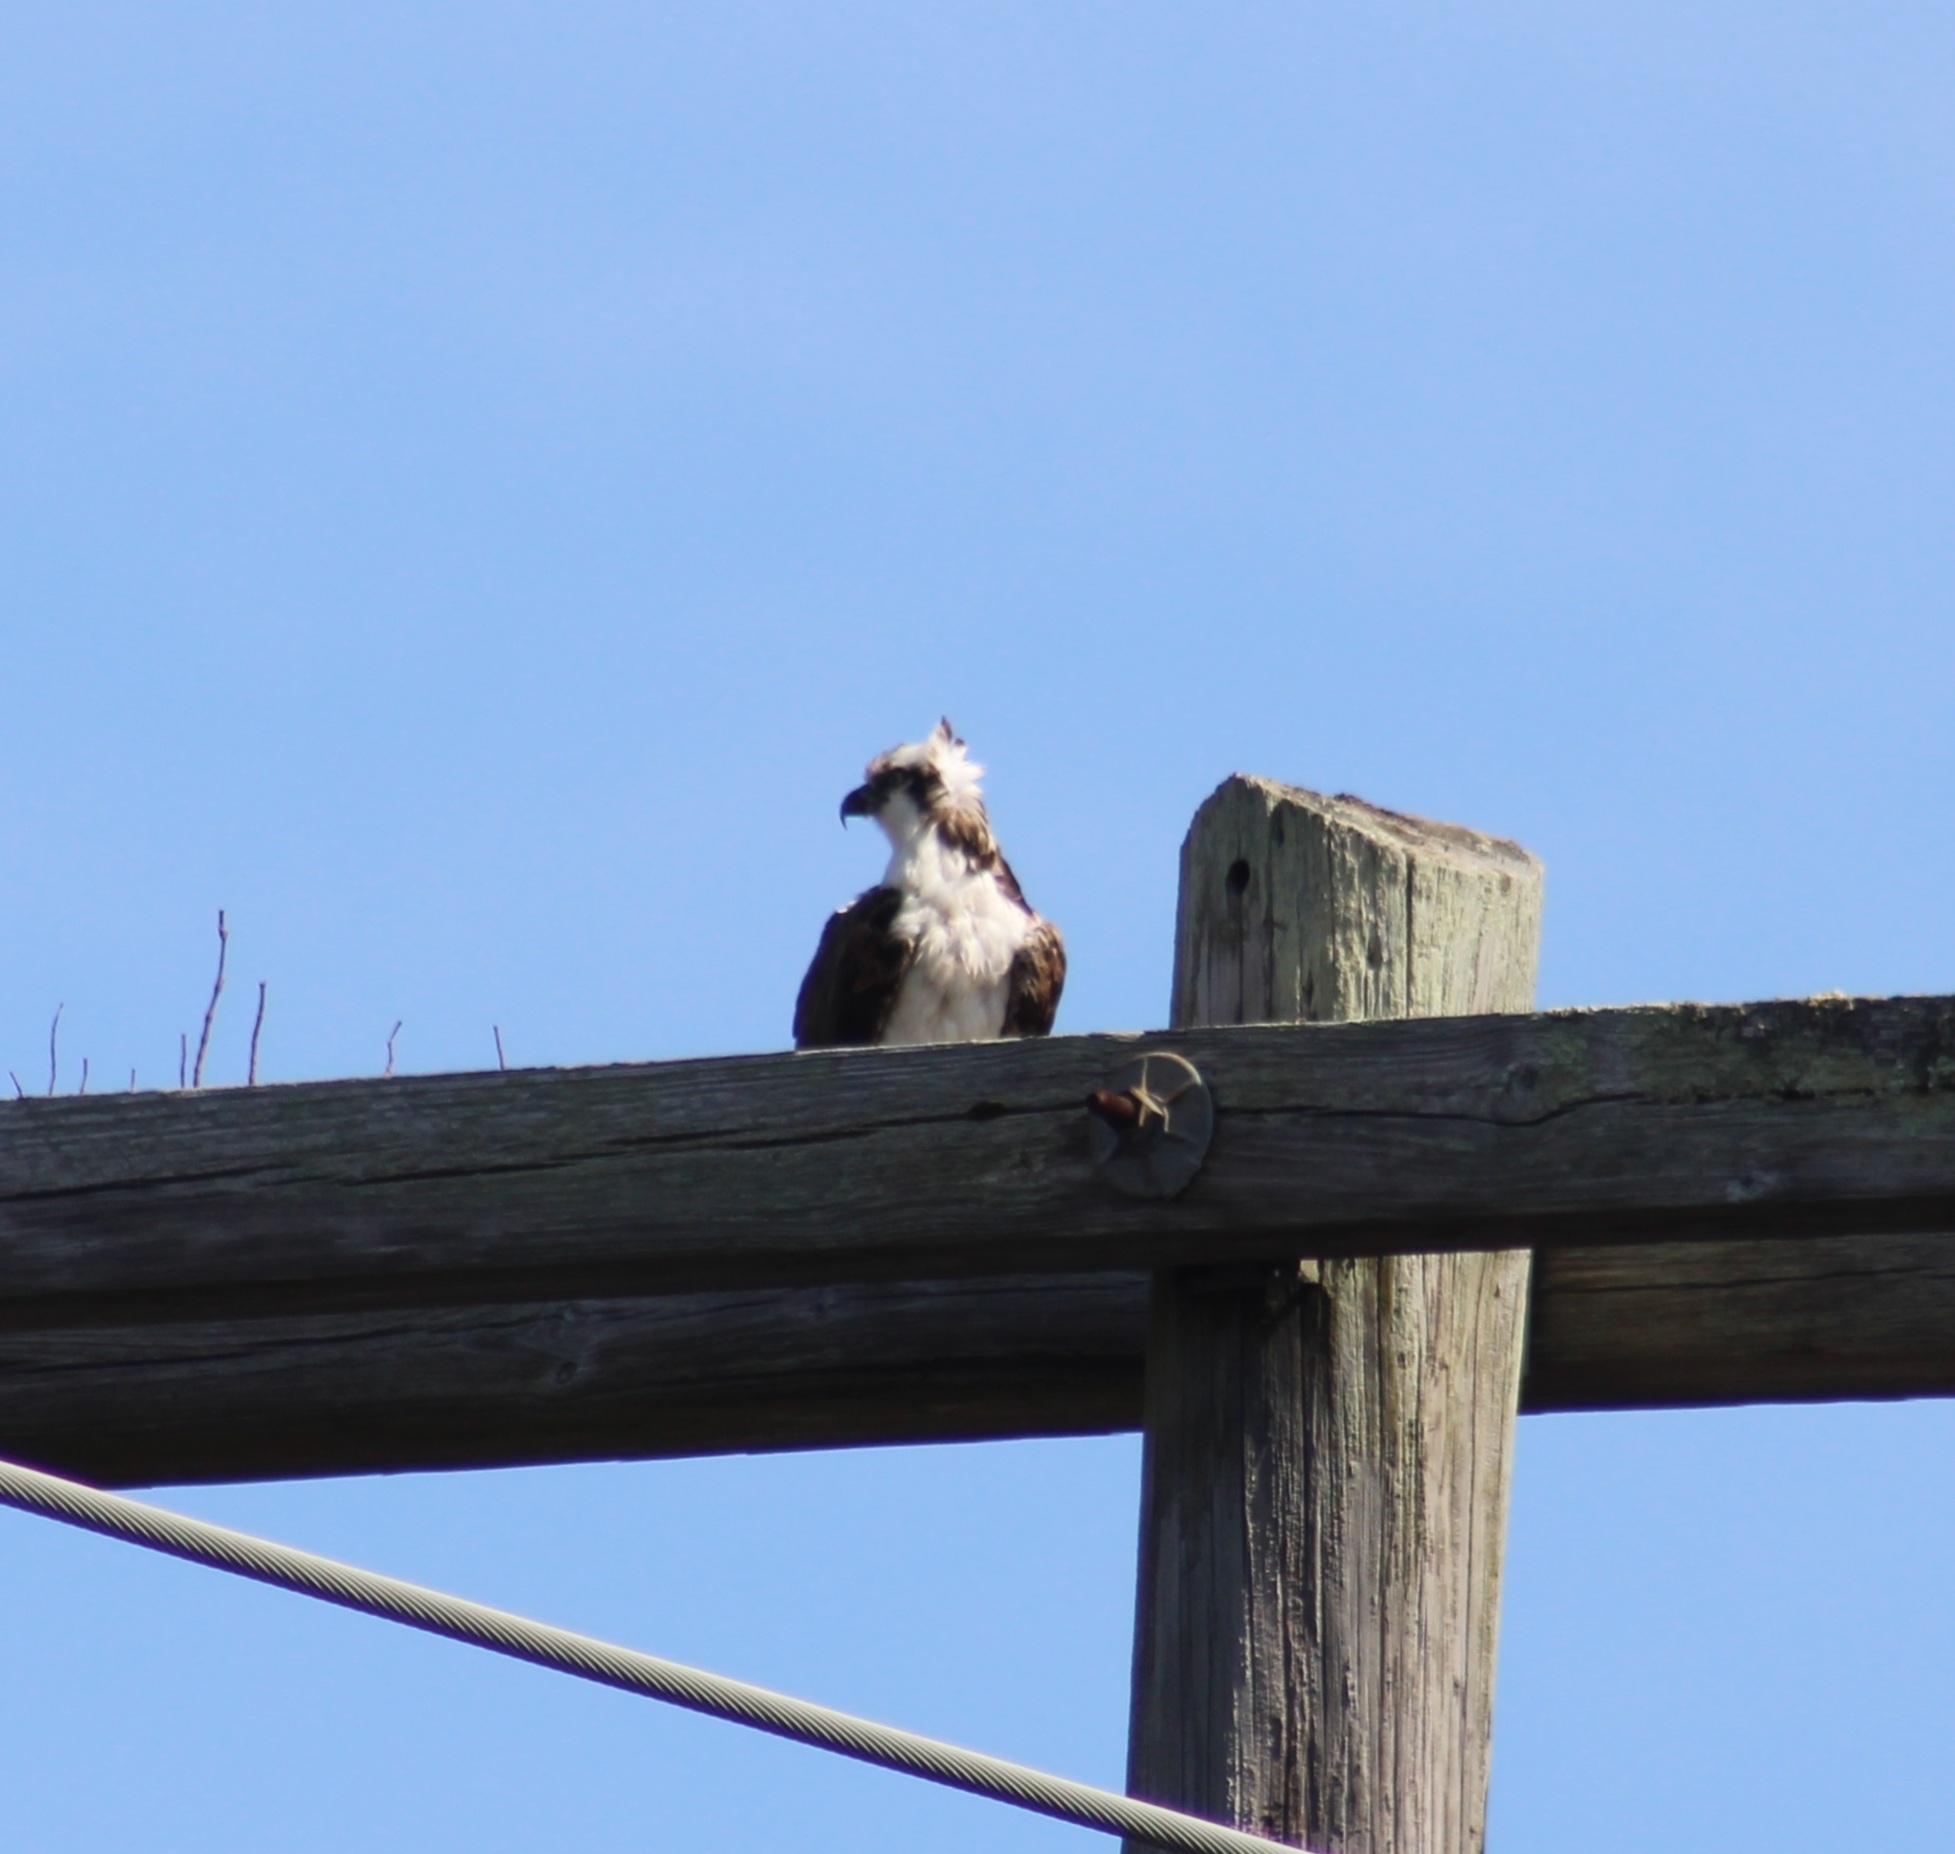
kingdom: Animalia
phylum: Chordata
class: Aves
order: Accipitriformes
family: Pandionidae
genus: Pandion
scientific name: Pandion haliaetus
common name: Osprey
